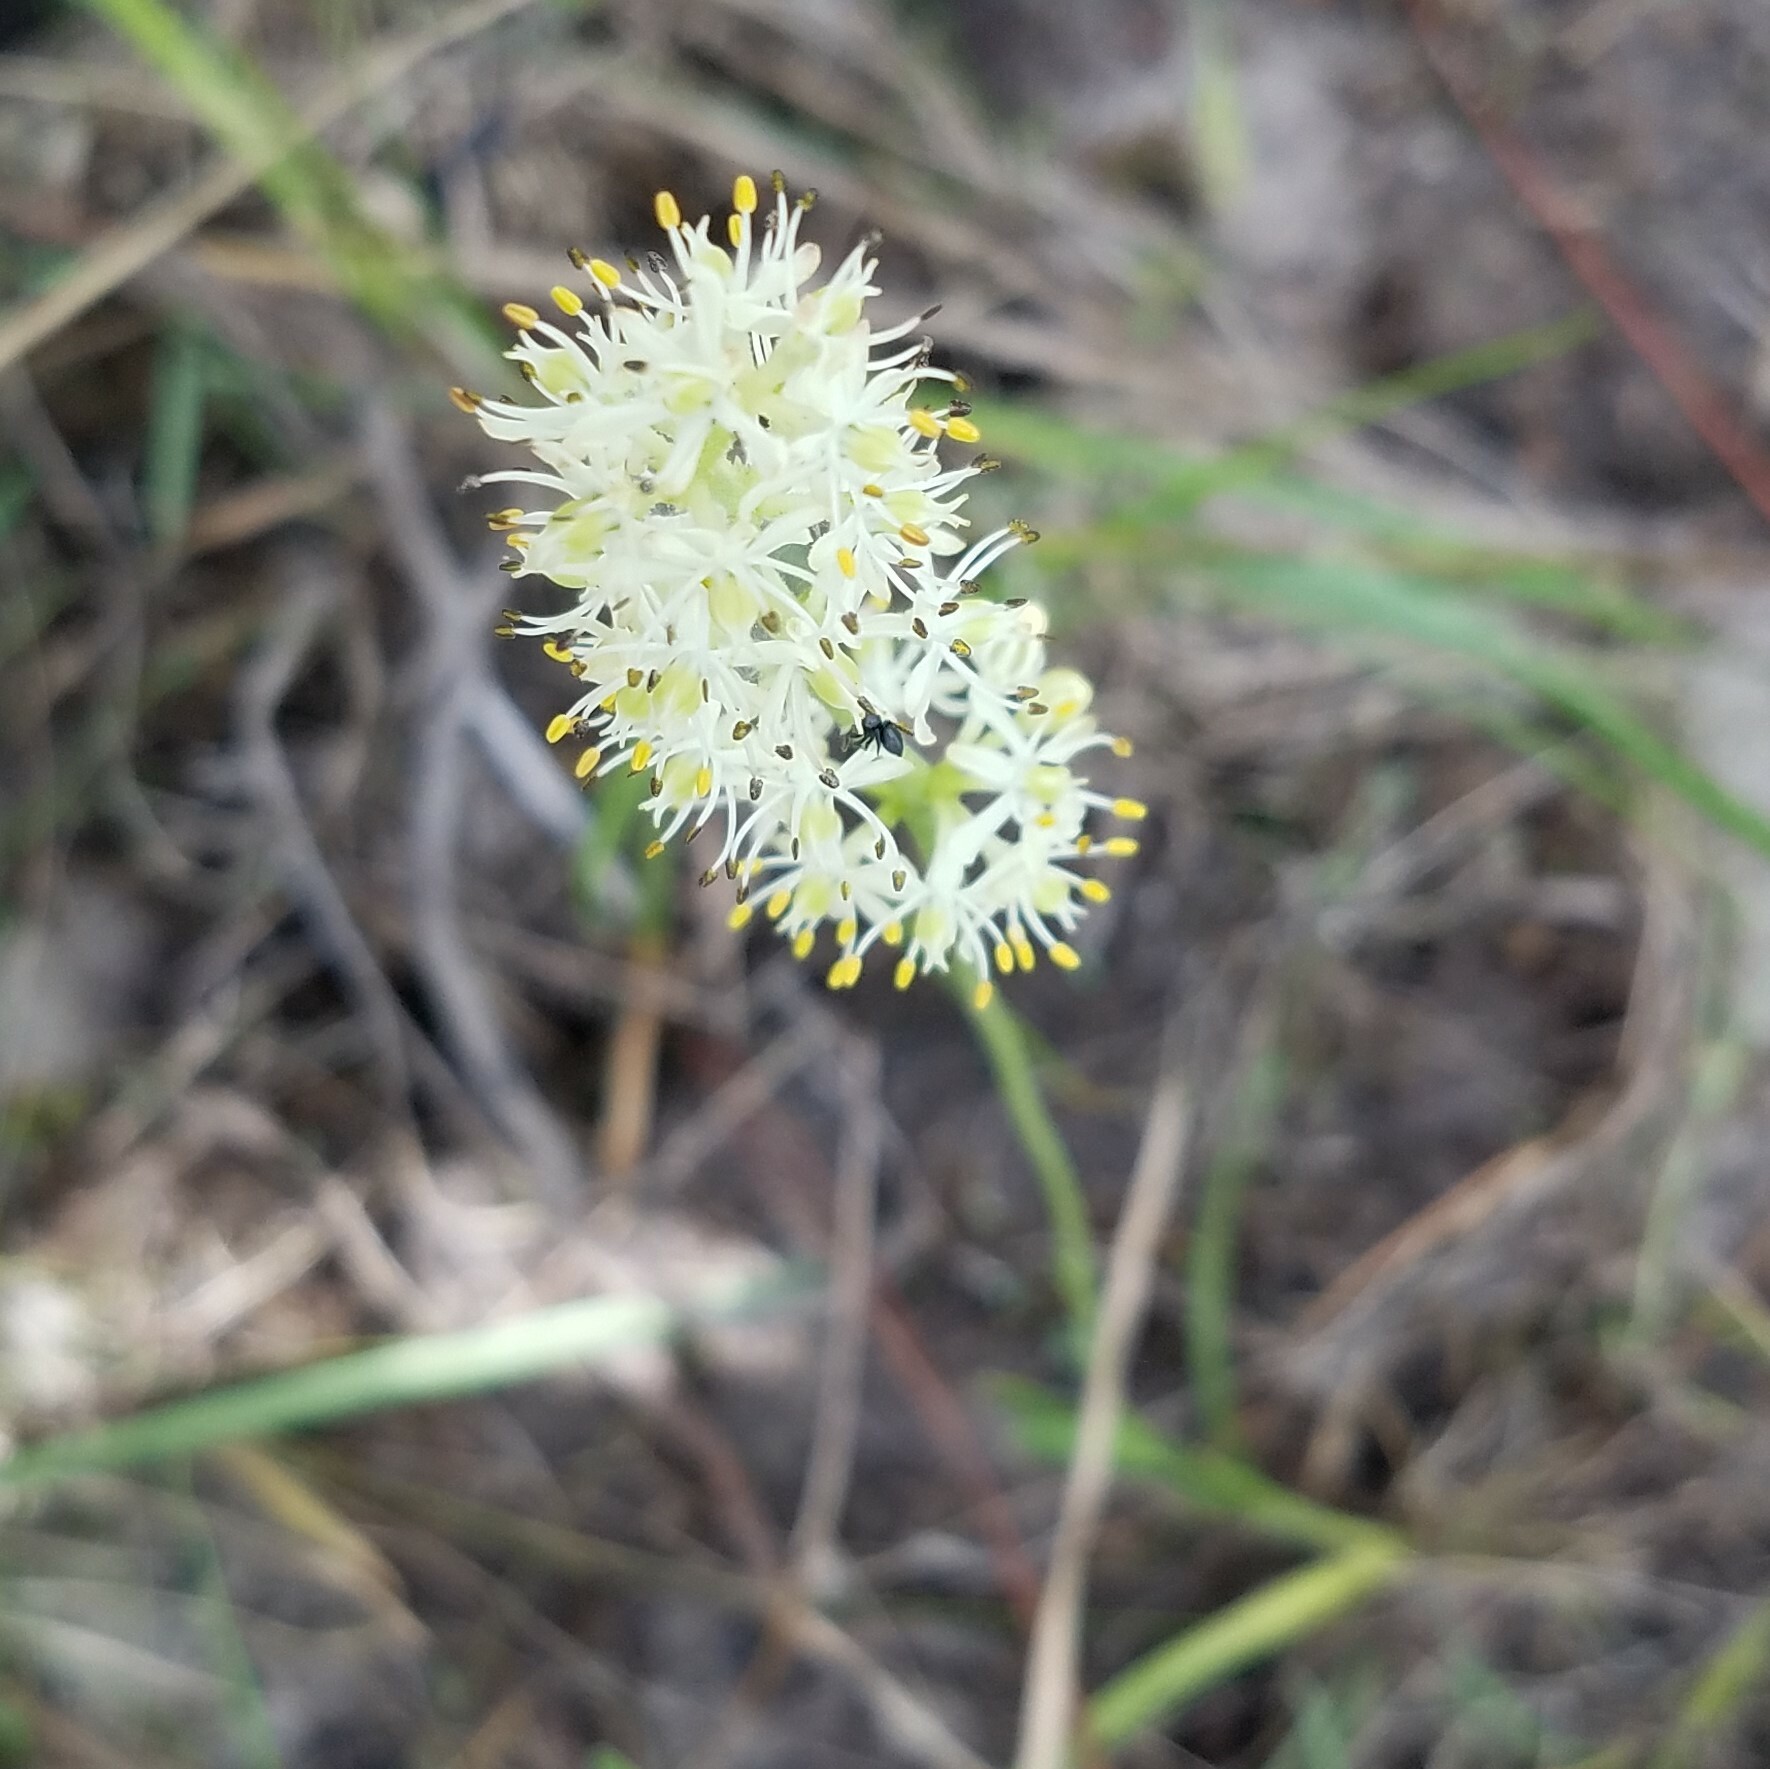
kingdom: Plantae
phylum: Tracheophyta
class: Liliopsida
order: Alismatales
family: Tofieldiaceae
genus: Triantha
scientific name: Triantha racemosa
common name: Coastal false asphodel
